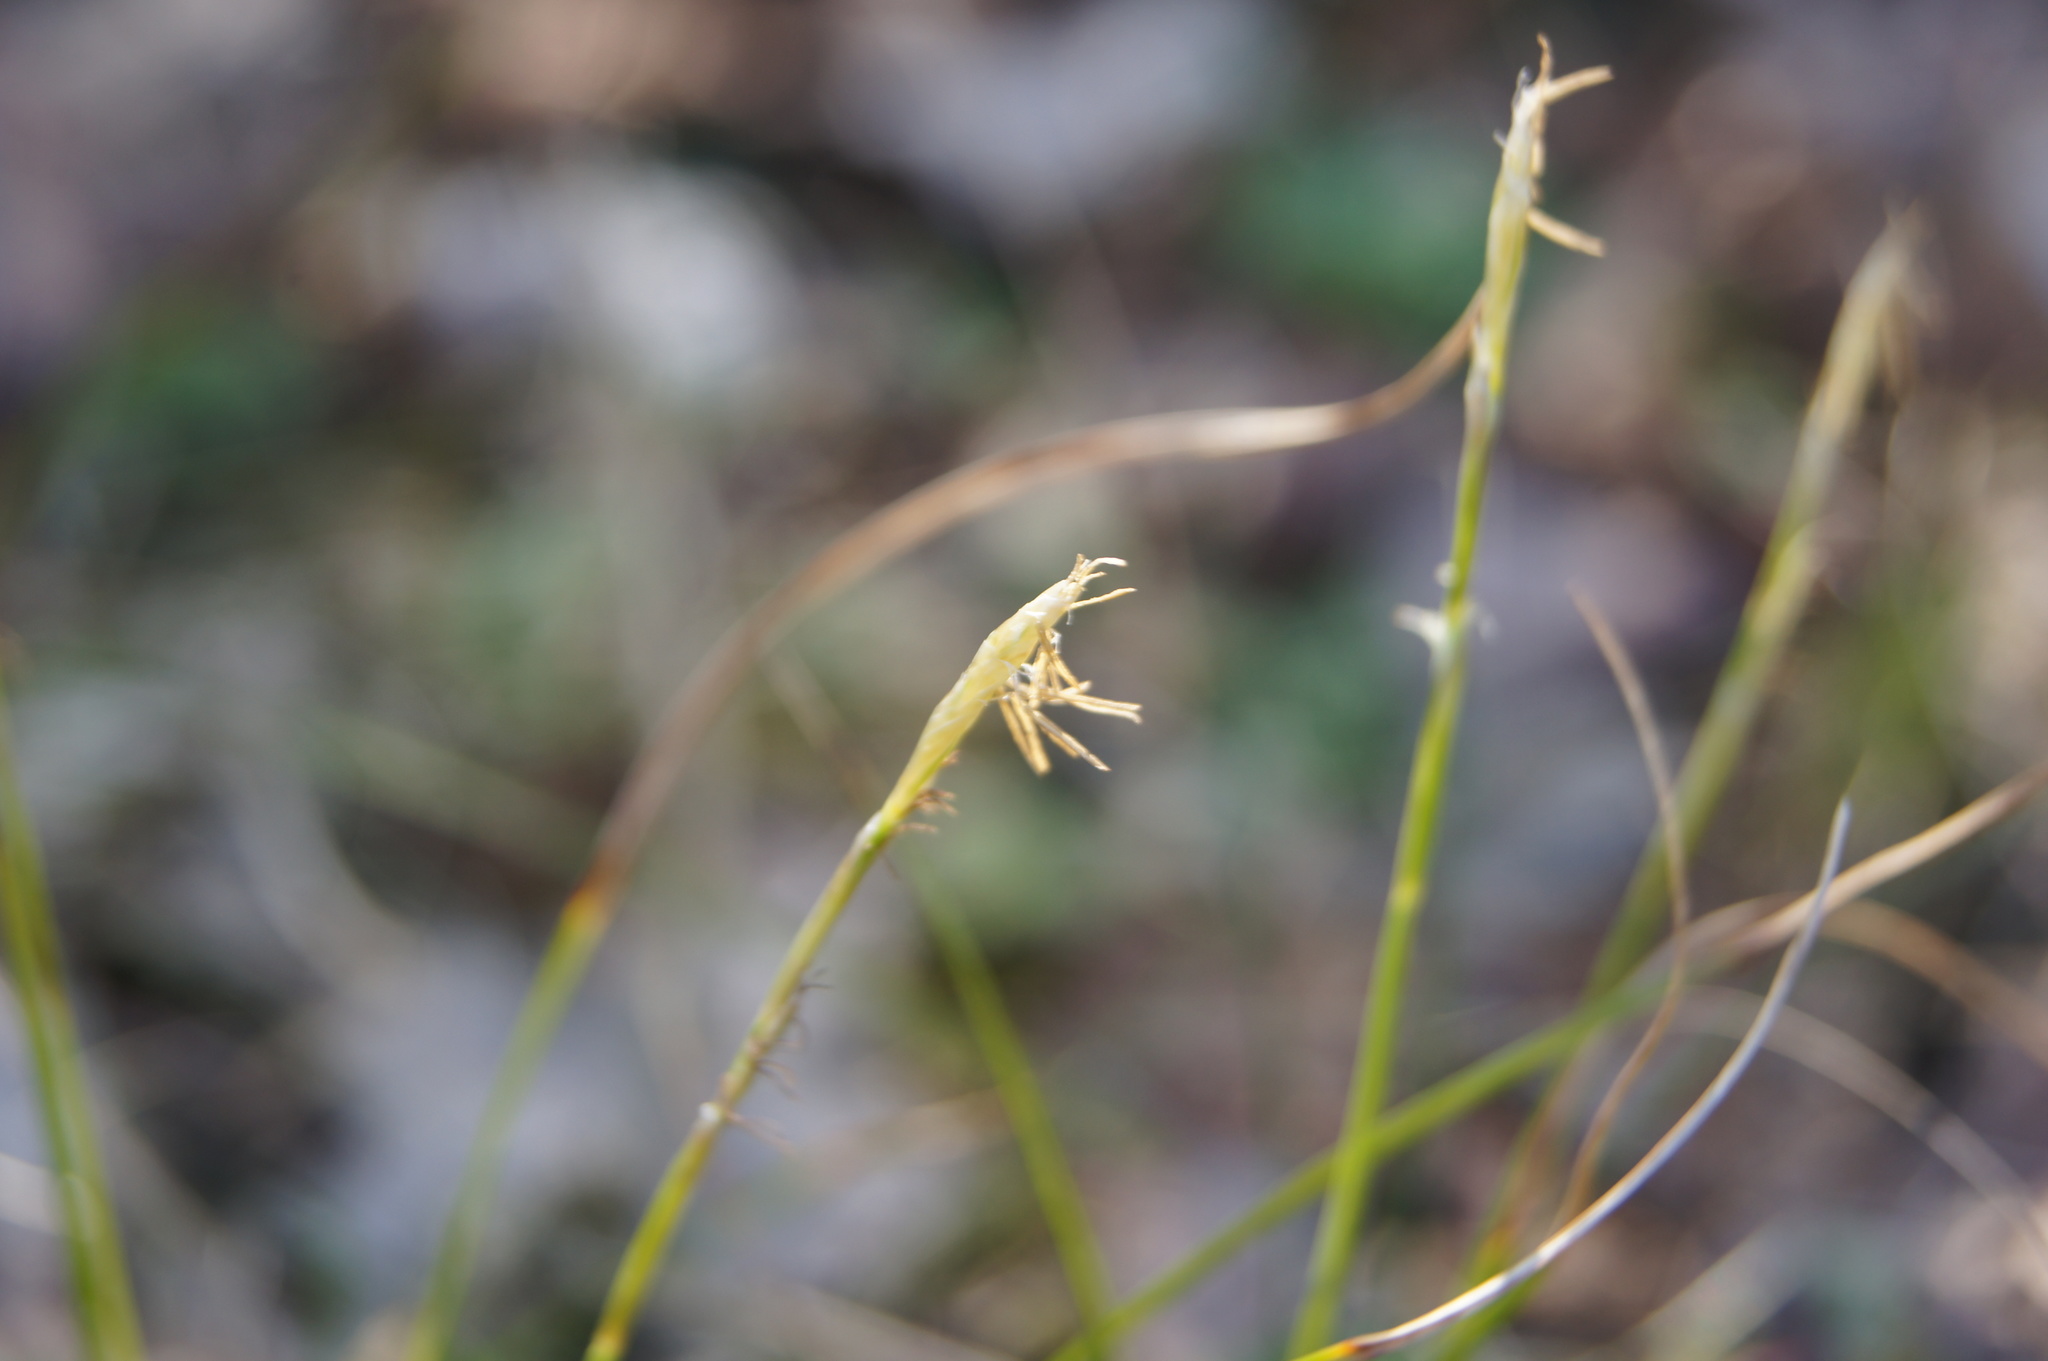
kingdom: Plantae
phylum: Tracheophyta
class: Liliopsida
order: Poales
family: Cyperaceae
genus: Carex
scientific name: Carex alba
